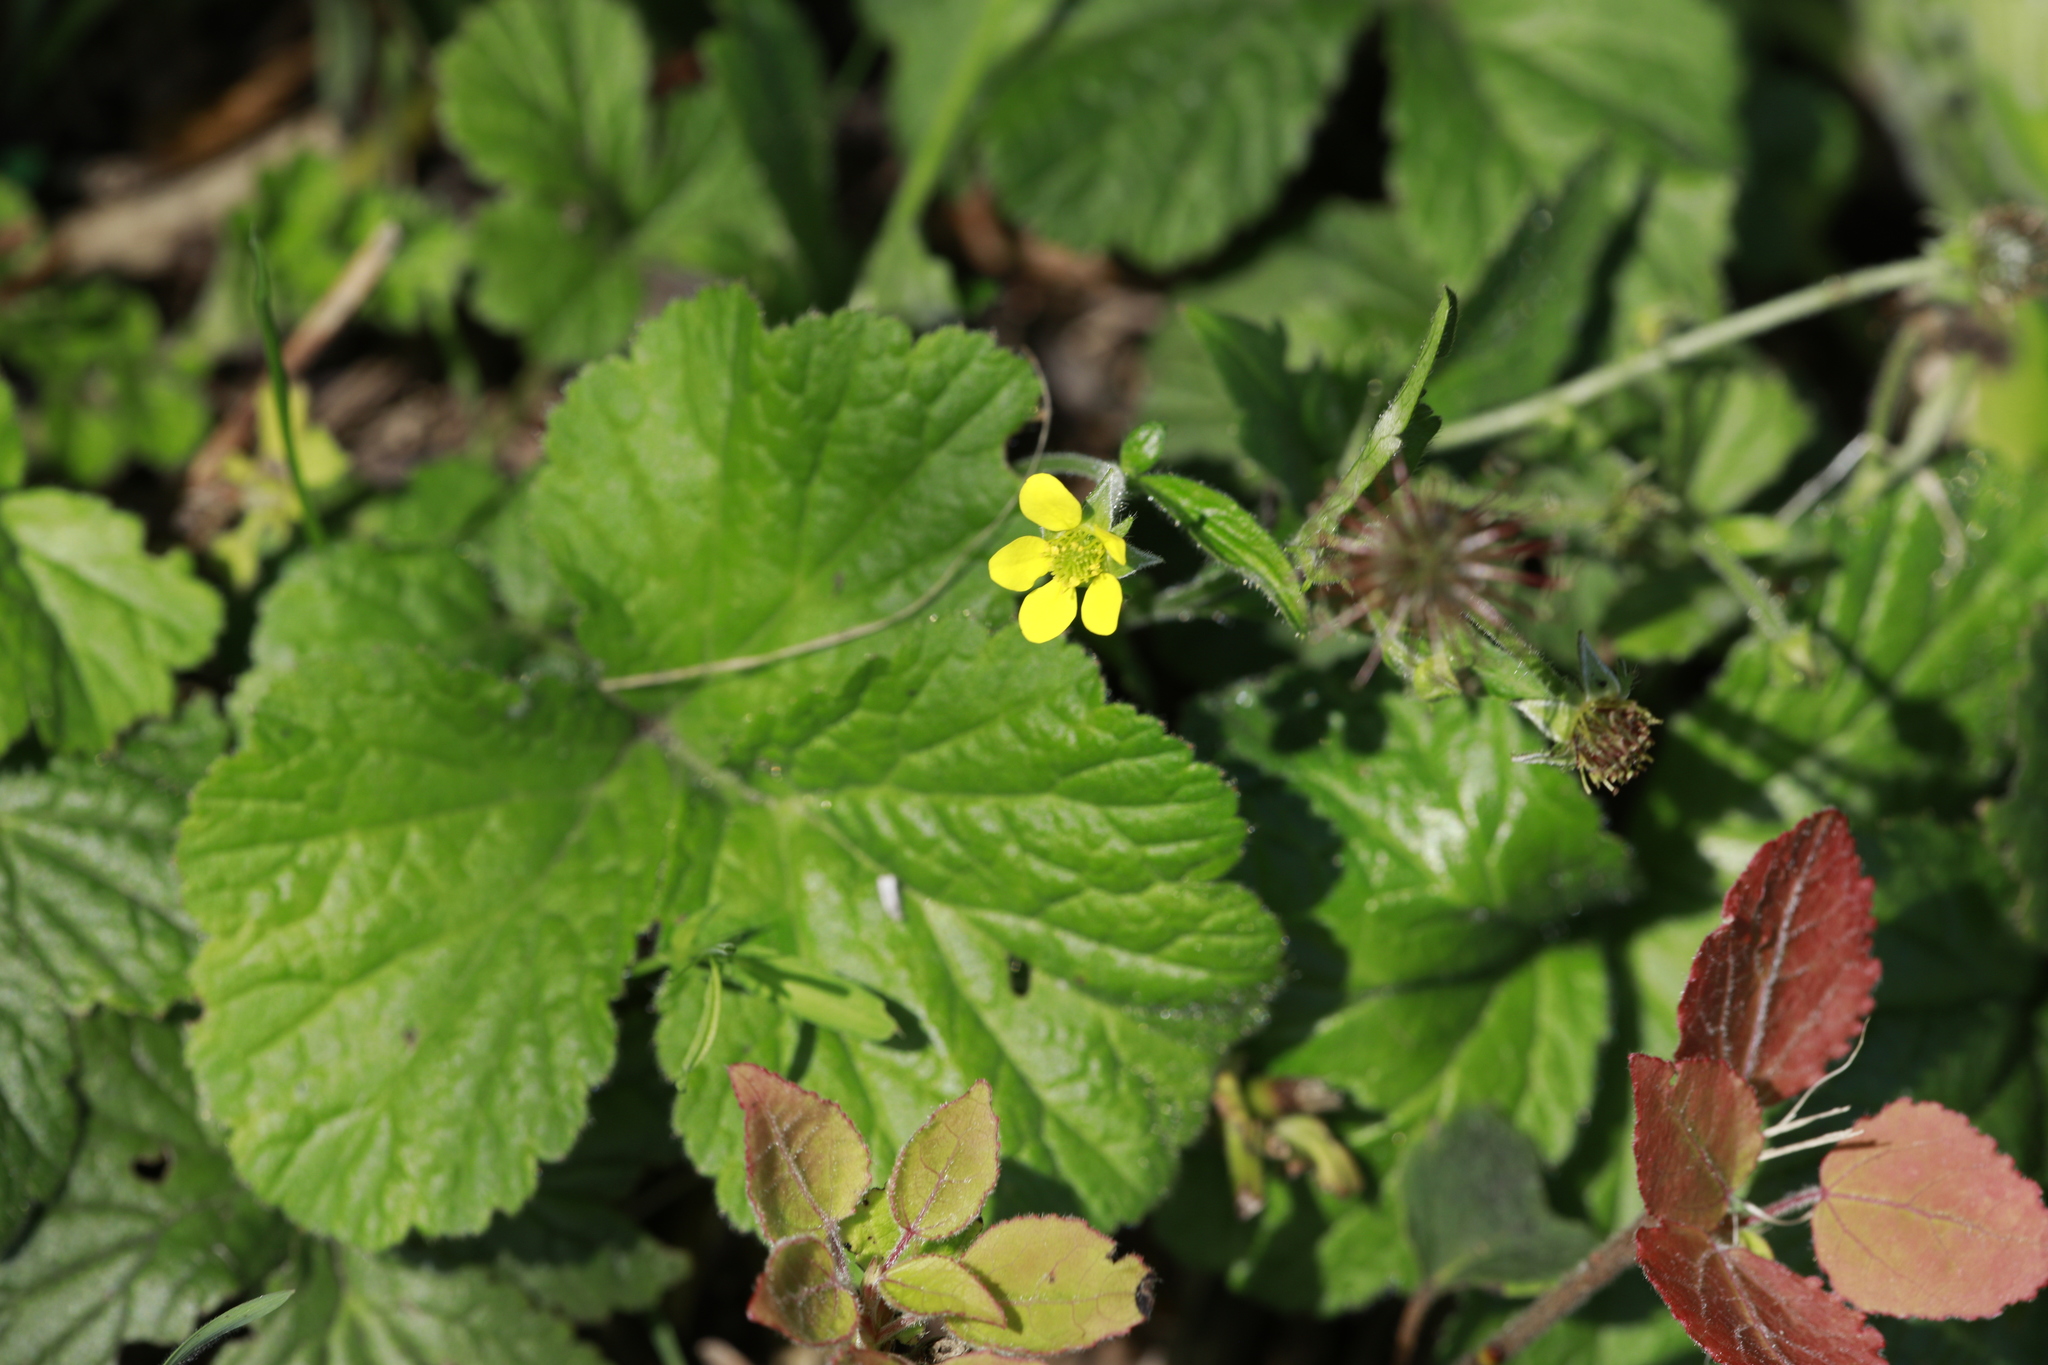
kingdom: Plantae
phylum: Tracheophyta
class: Magnoliopsida
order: Rosales
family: Rosaceae
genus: Geum
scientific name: Geum urbanum
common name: Wood avens
